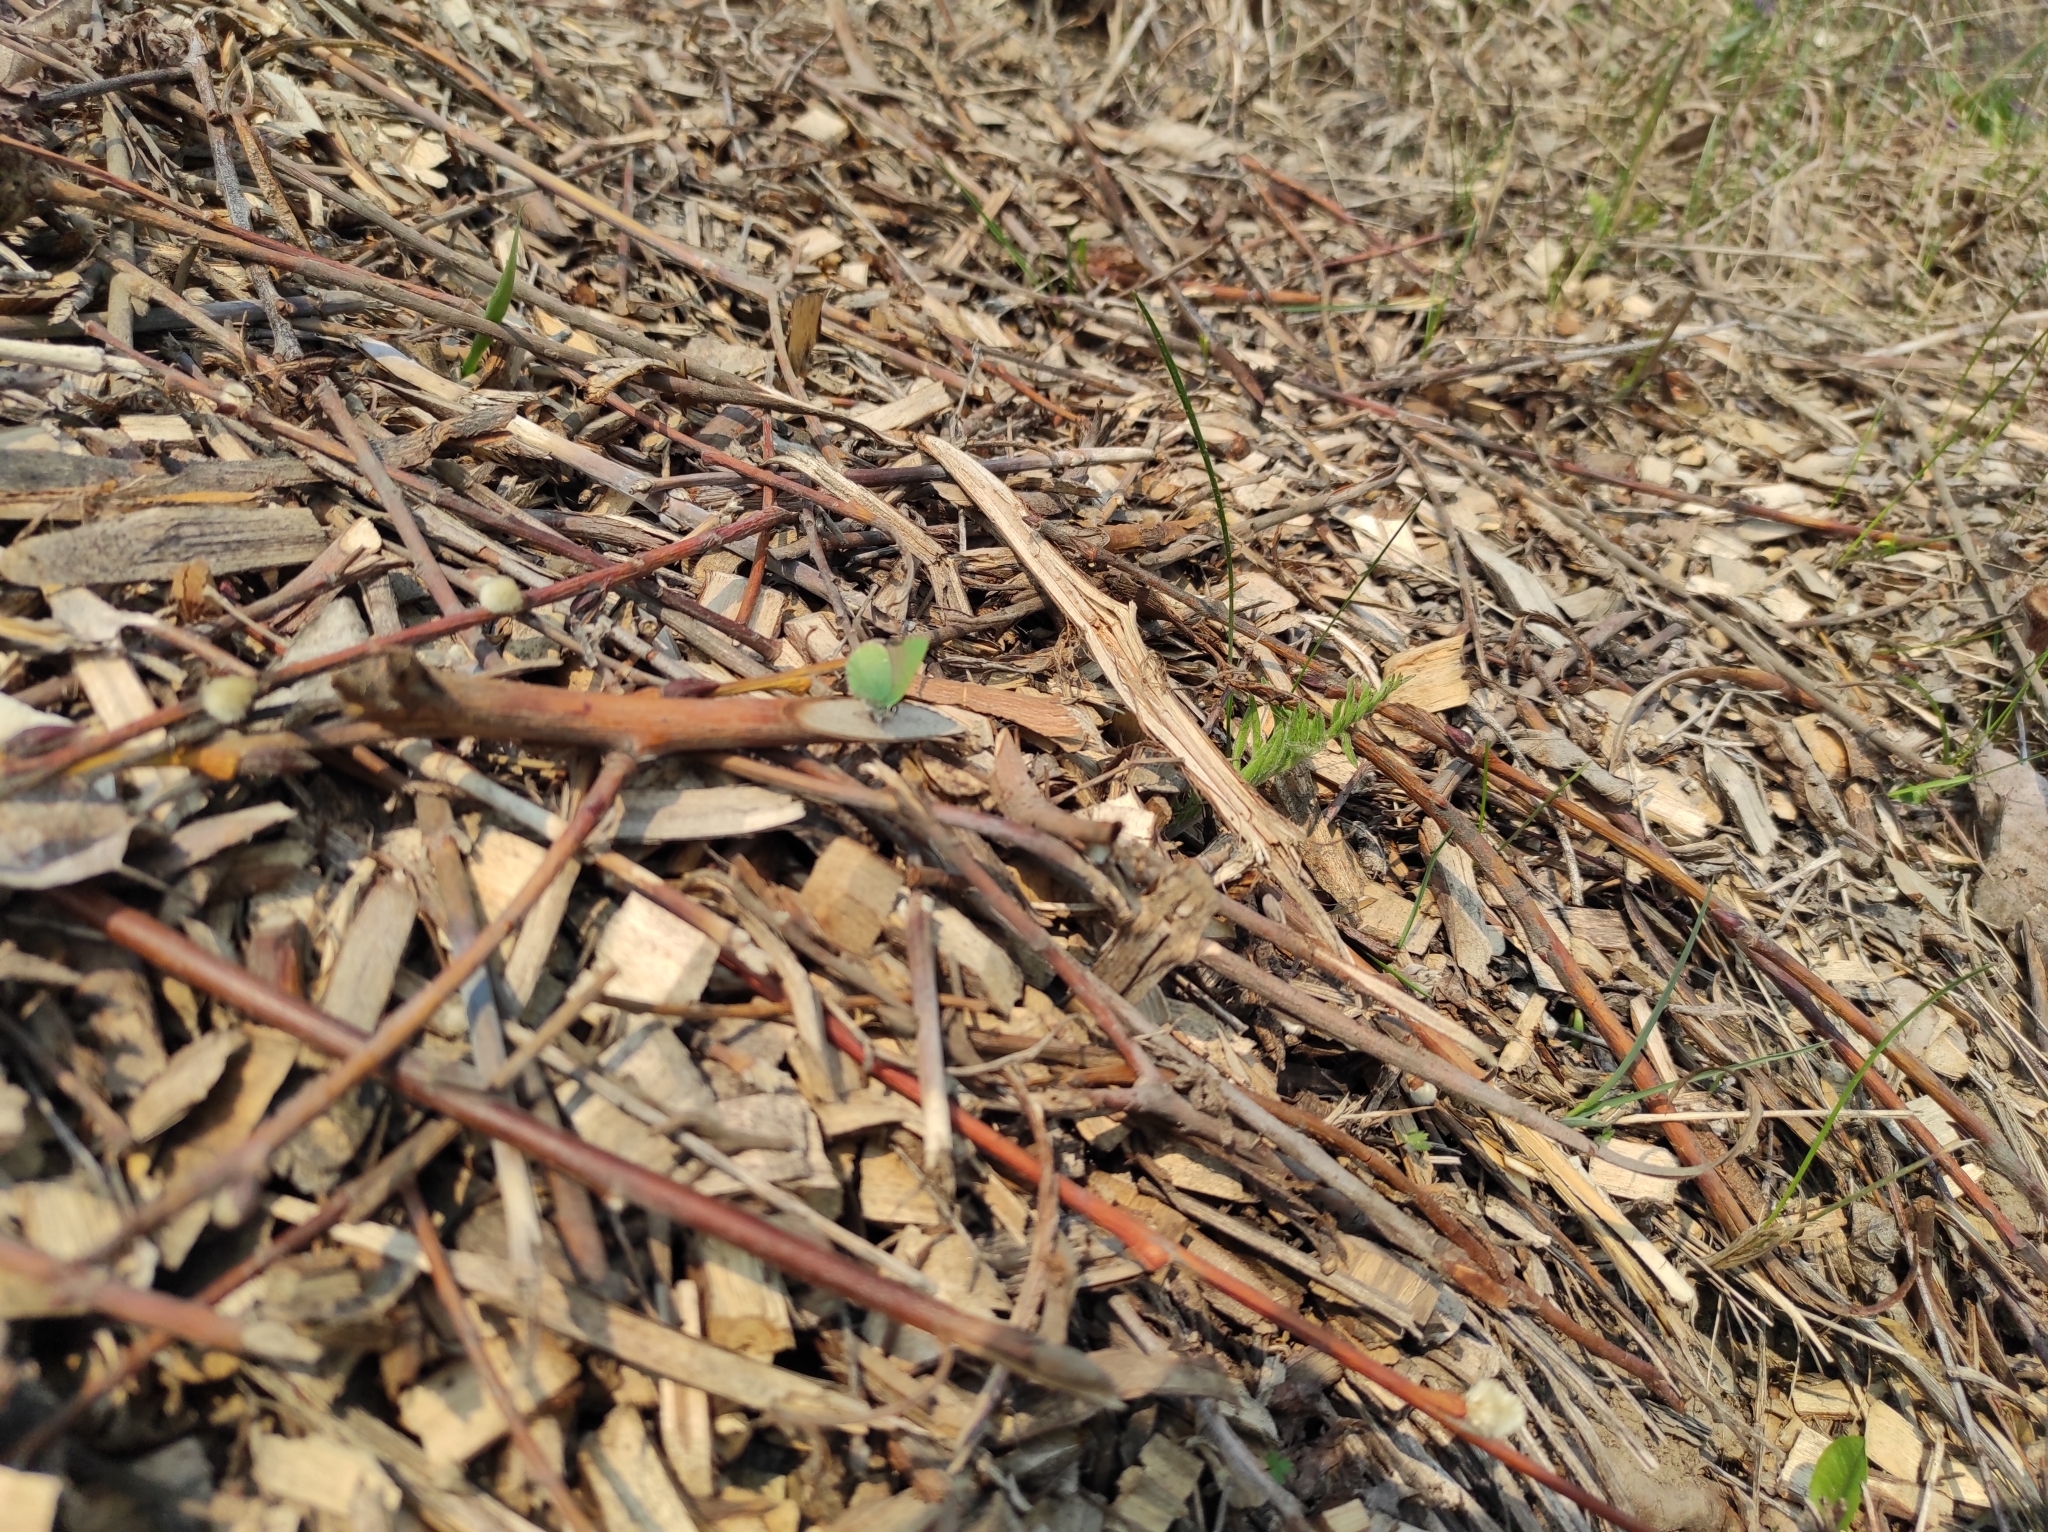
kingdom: Animalia
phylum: Arthropoda
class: Insecta
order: Lepidoptera
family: Lycaenidae
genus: Callophrys
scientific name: Callophrys rubi
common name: Green hairstreak
